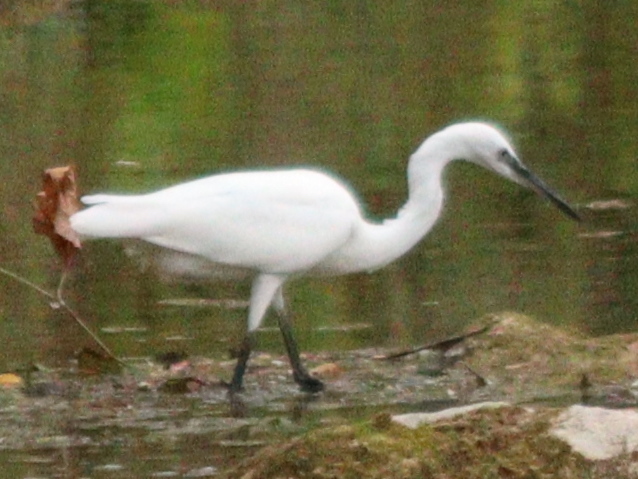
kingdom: Animalia
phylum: Chordata
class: Aves
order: Pelecaniformes
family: Ardeidae
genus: Egretta
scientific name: Egretta garzetta
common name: Little egret
